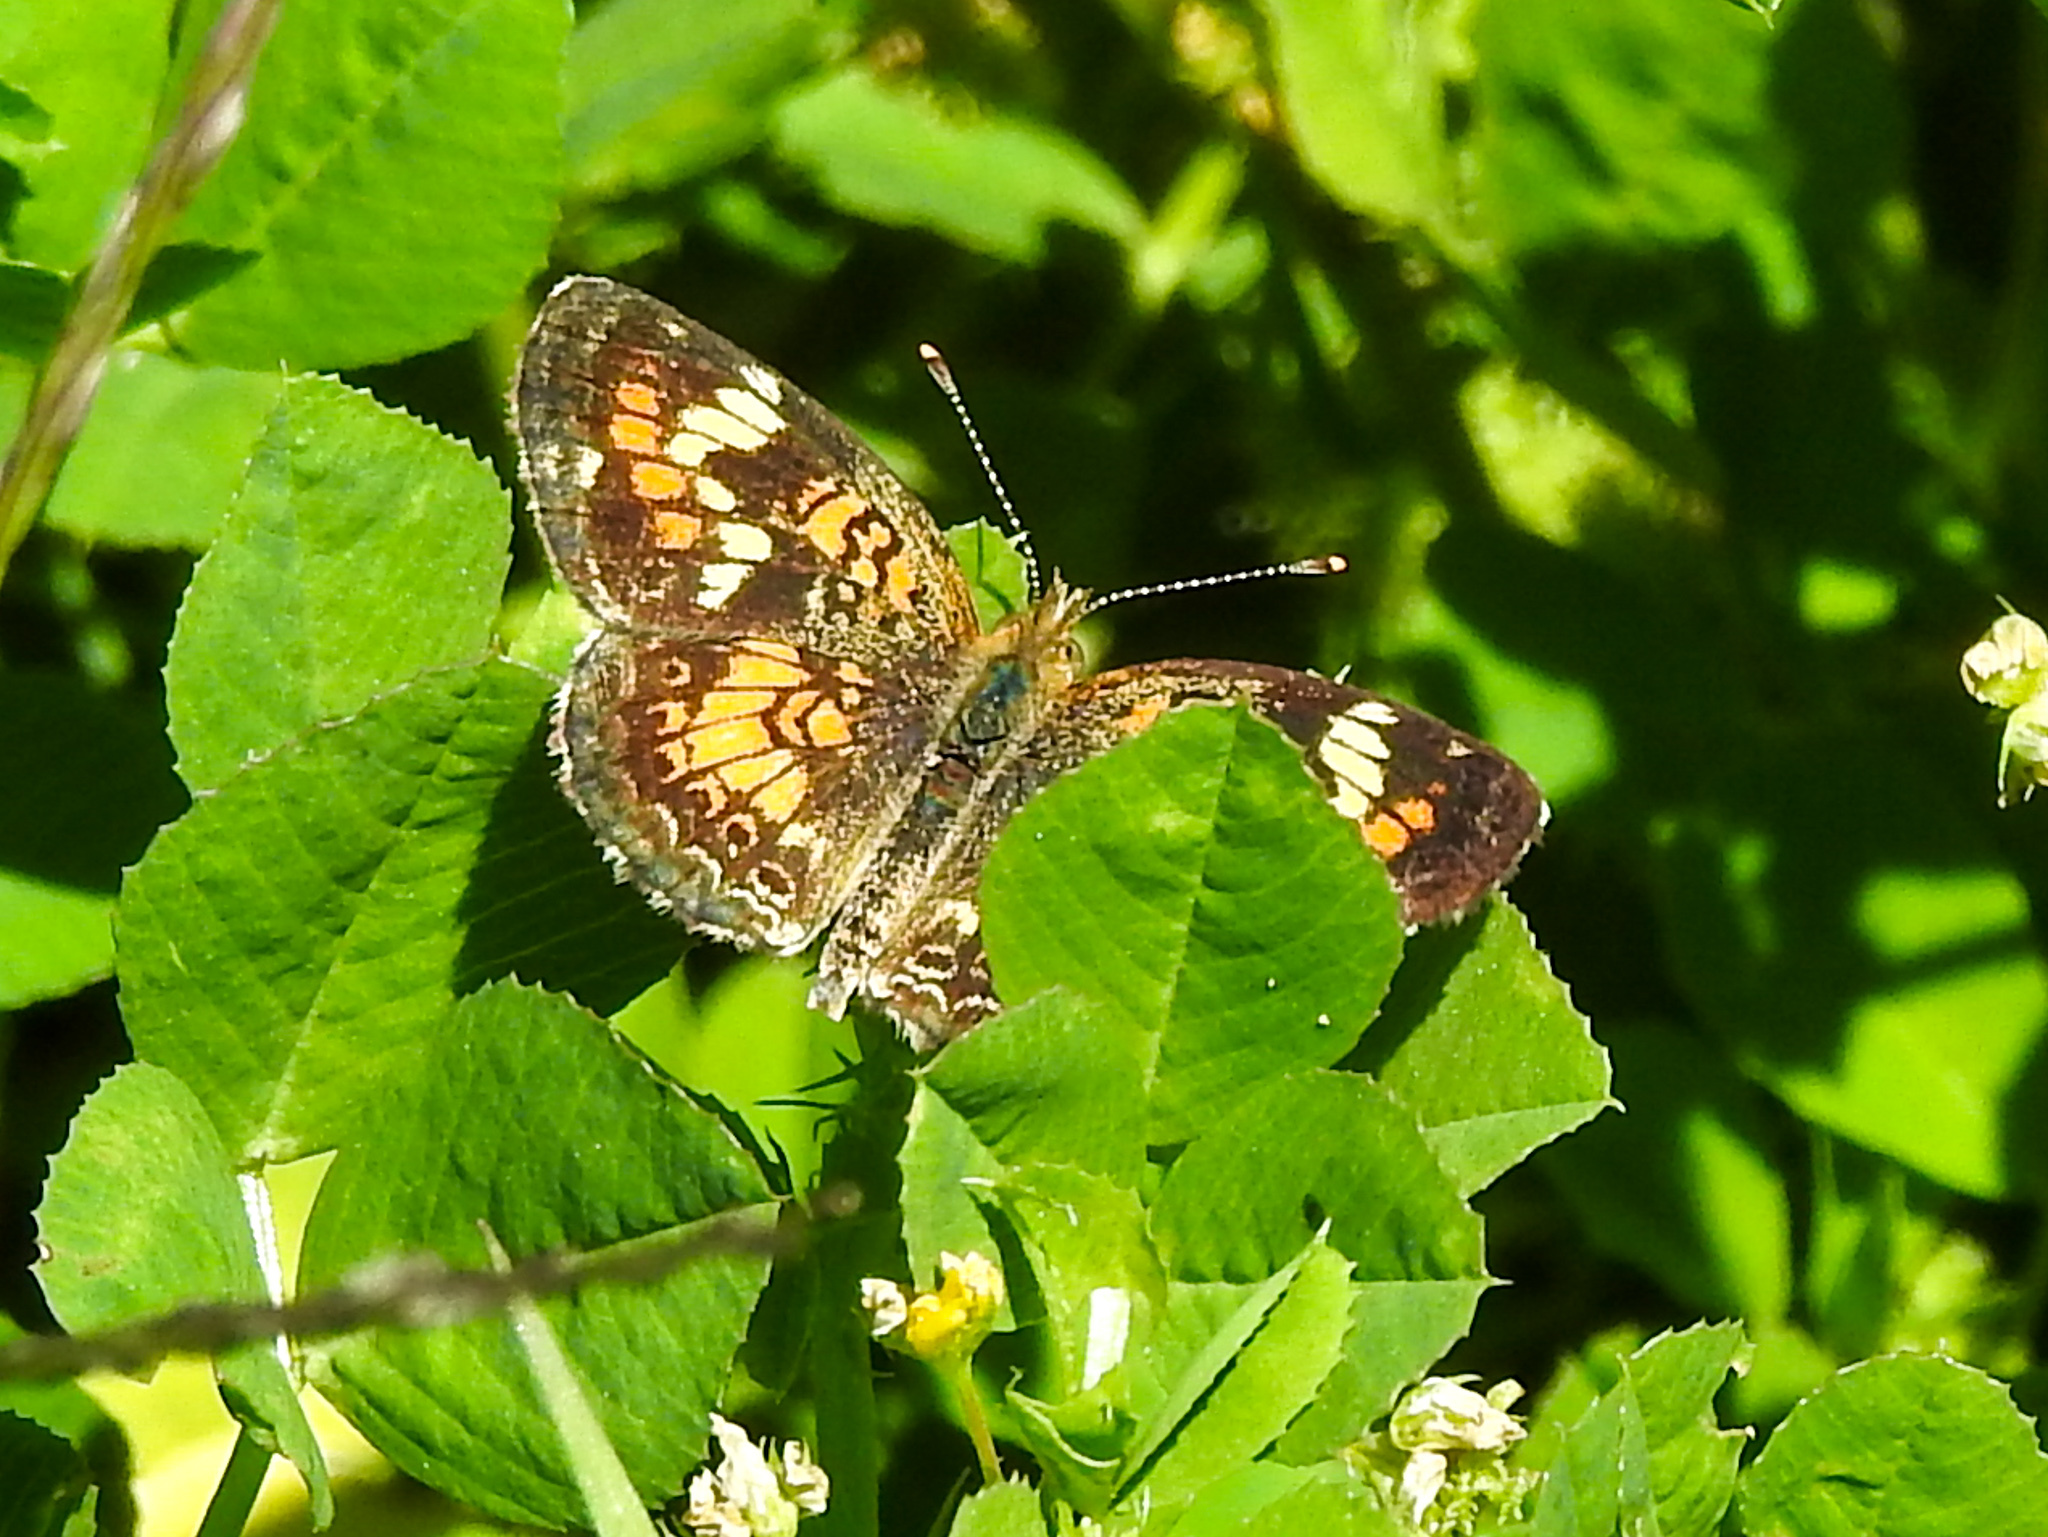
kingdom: Animalia
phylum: Arthropoda
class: Insecta
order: Lepidoptera
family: Nymphalidae
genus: Phyciodes
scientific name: Phyciodes phaon
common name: Phaon crescent
